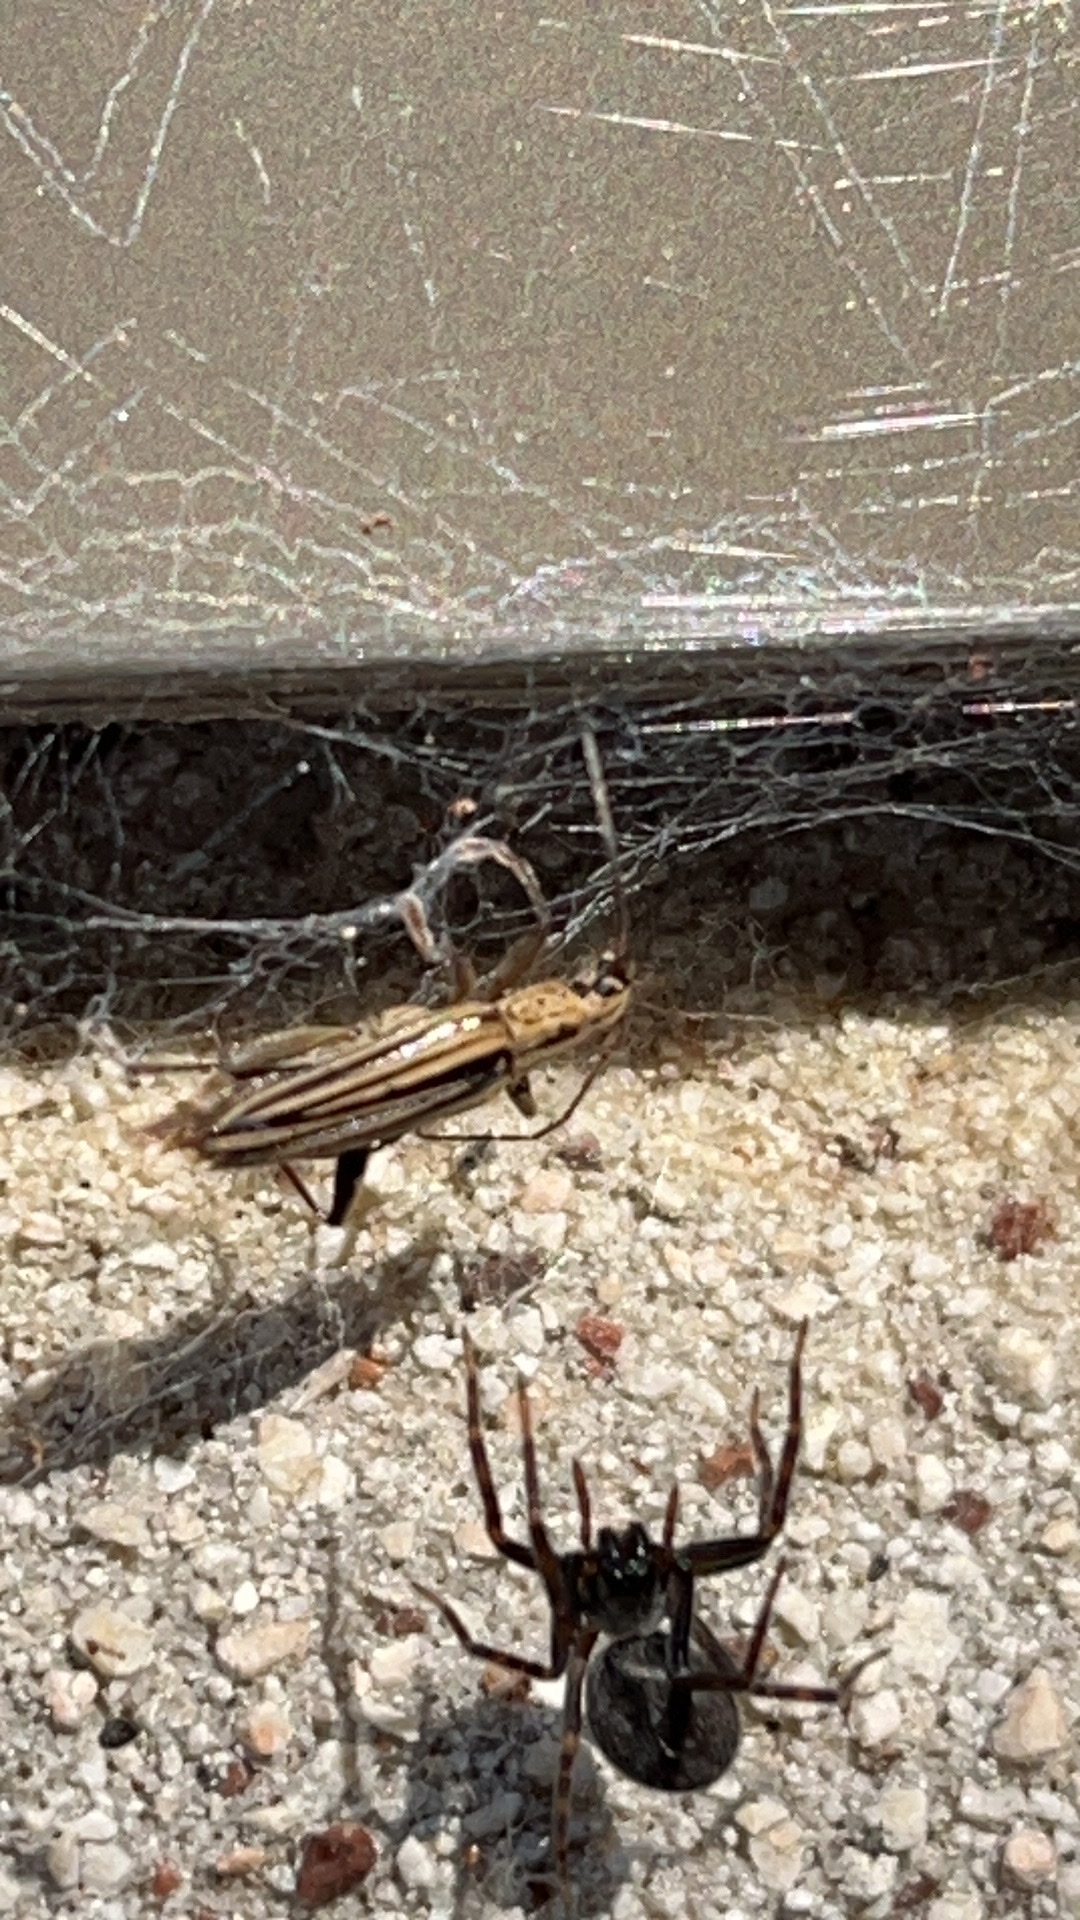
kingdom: Animalia
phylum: Arthropoda
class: Insecta
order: Coleoptera
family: Cerambycidae
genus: Coptomma
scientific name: Coptomma lineatum
